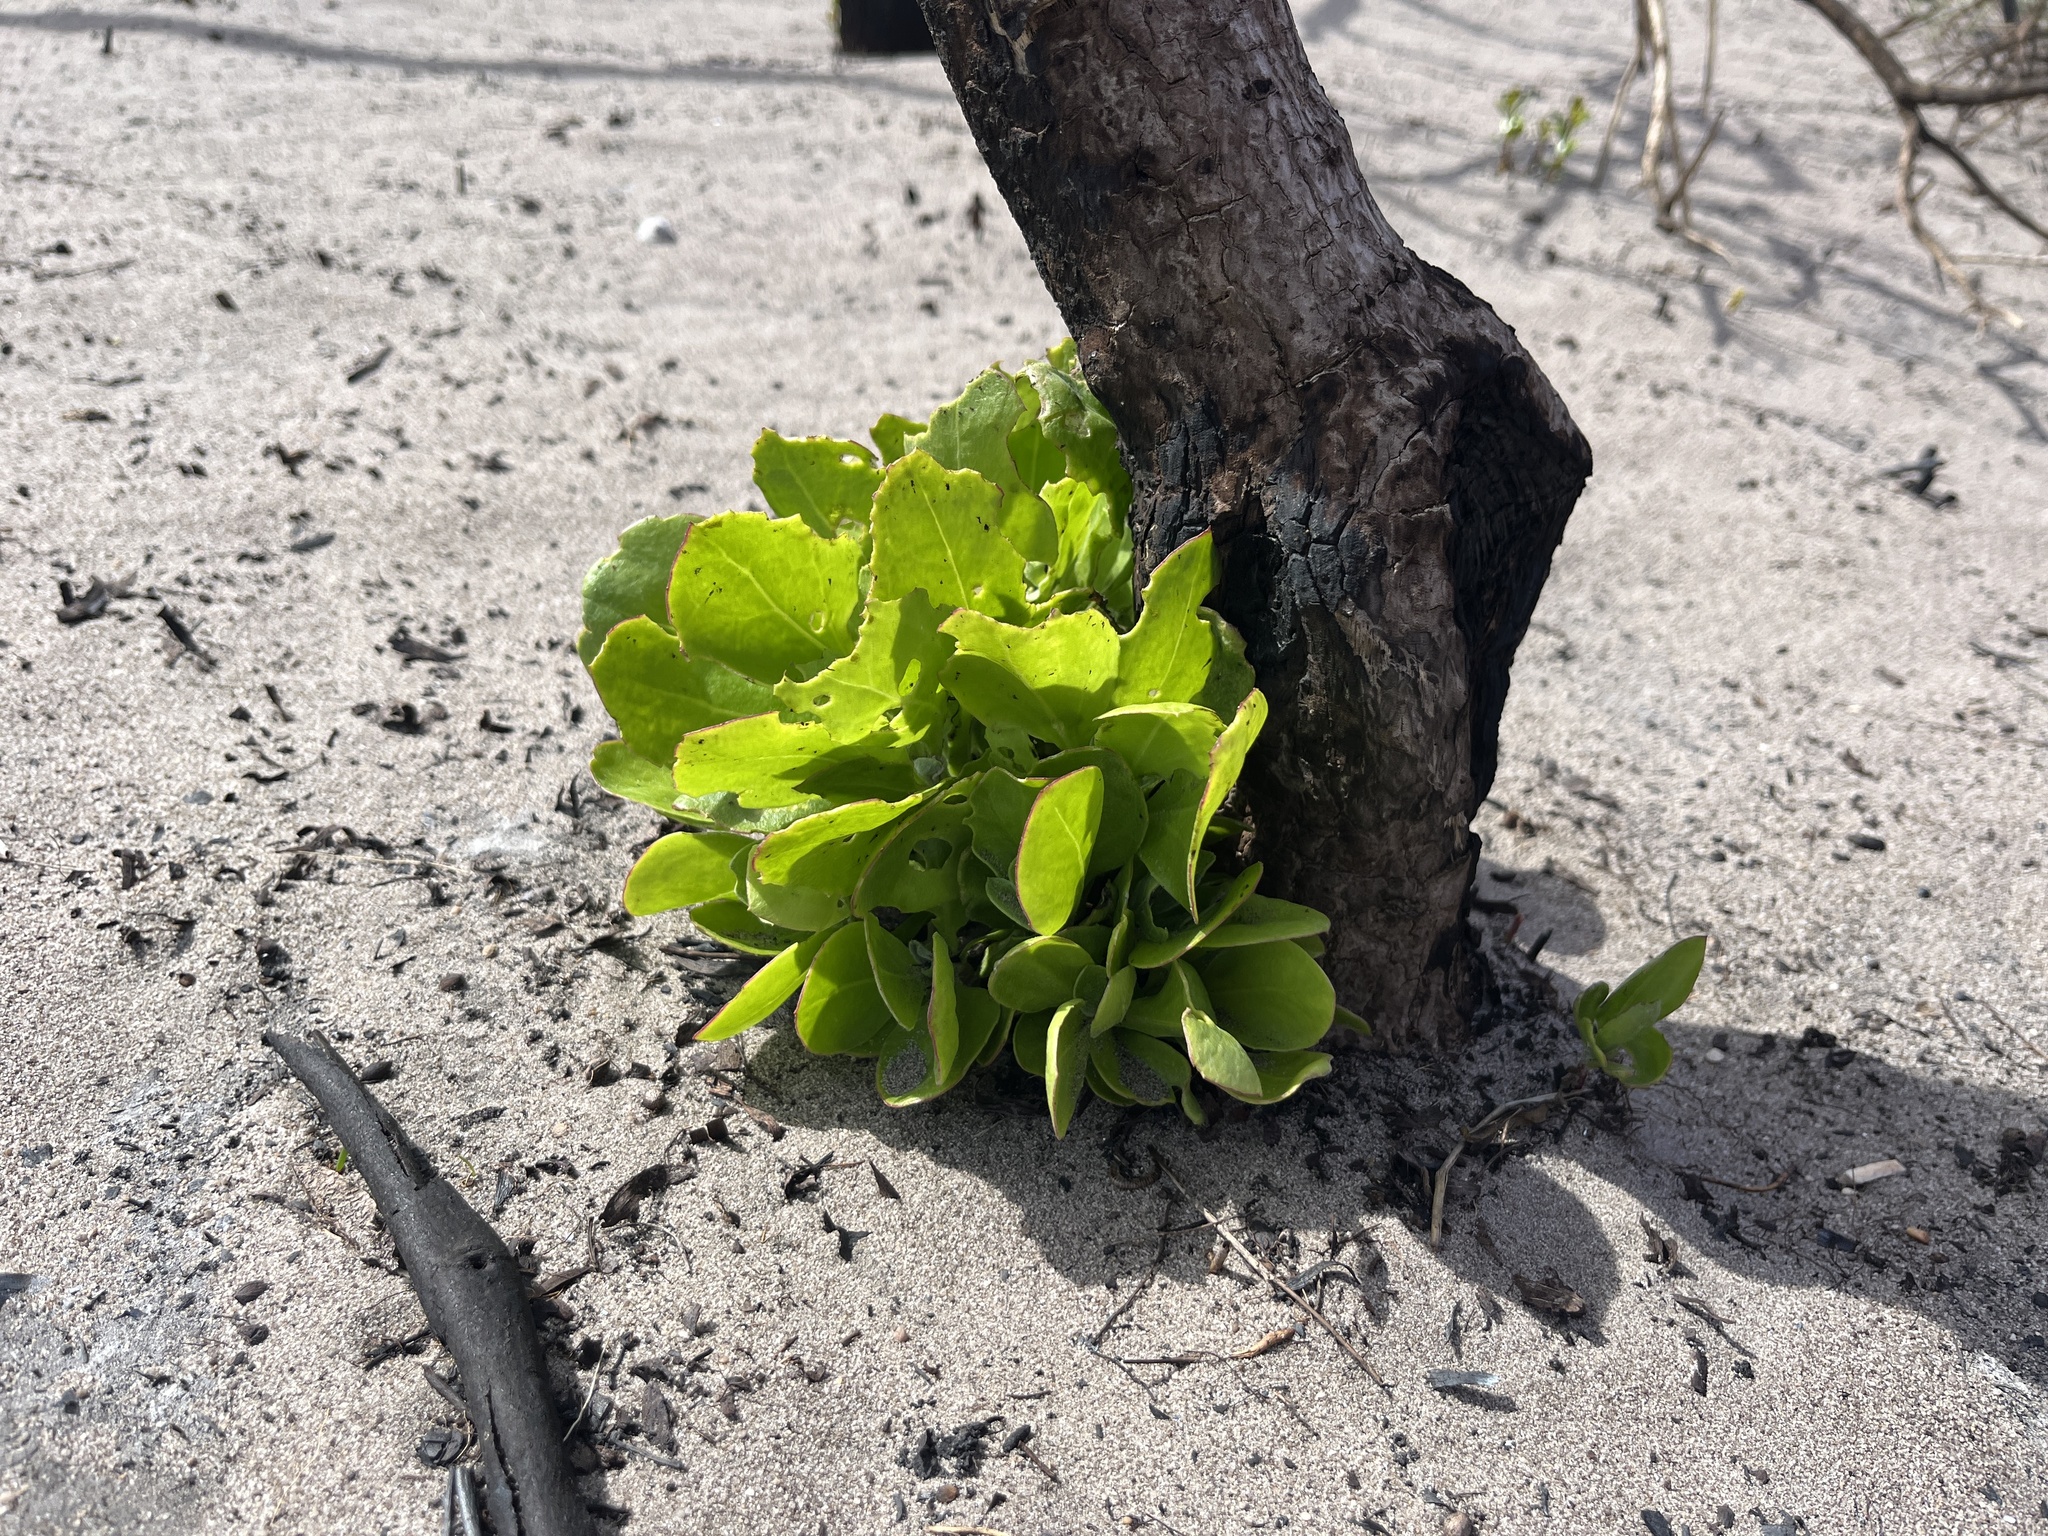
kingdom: Plantae
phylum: Tracheophyta
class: Magnoliopsida
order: Asterales
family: Asteraceae
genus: Osteospermum
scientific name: Osteospermum moniliferum
